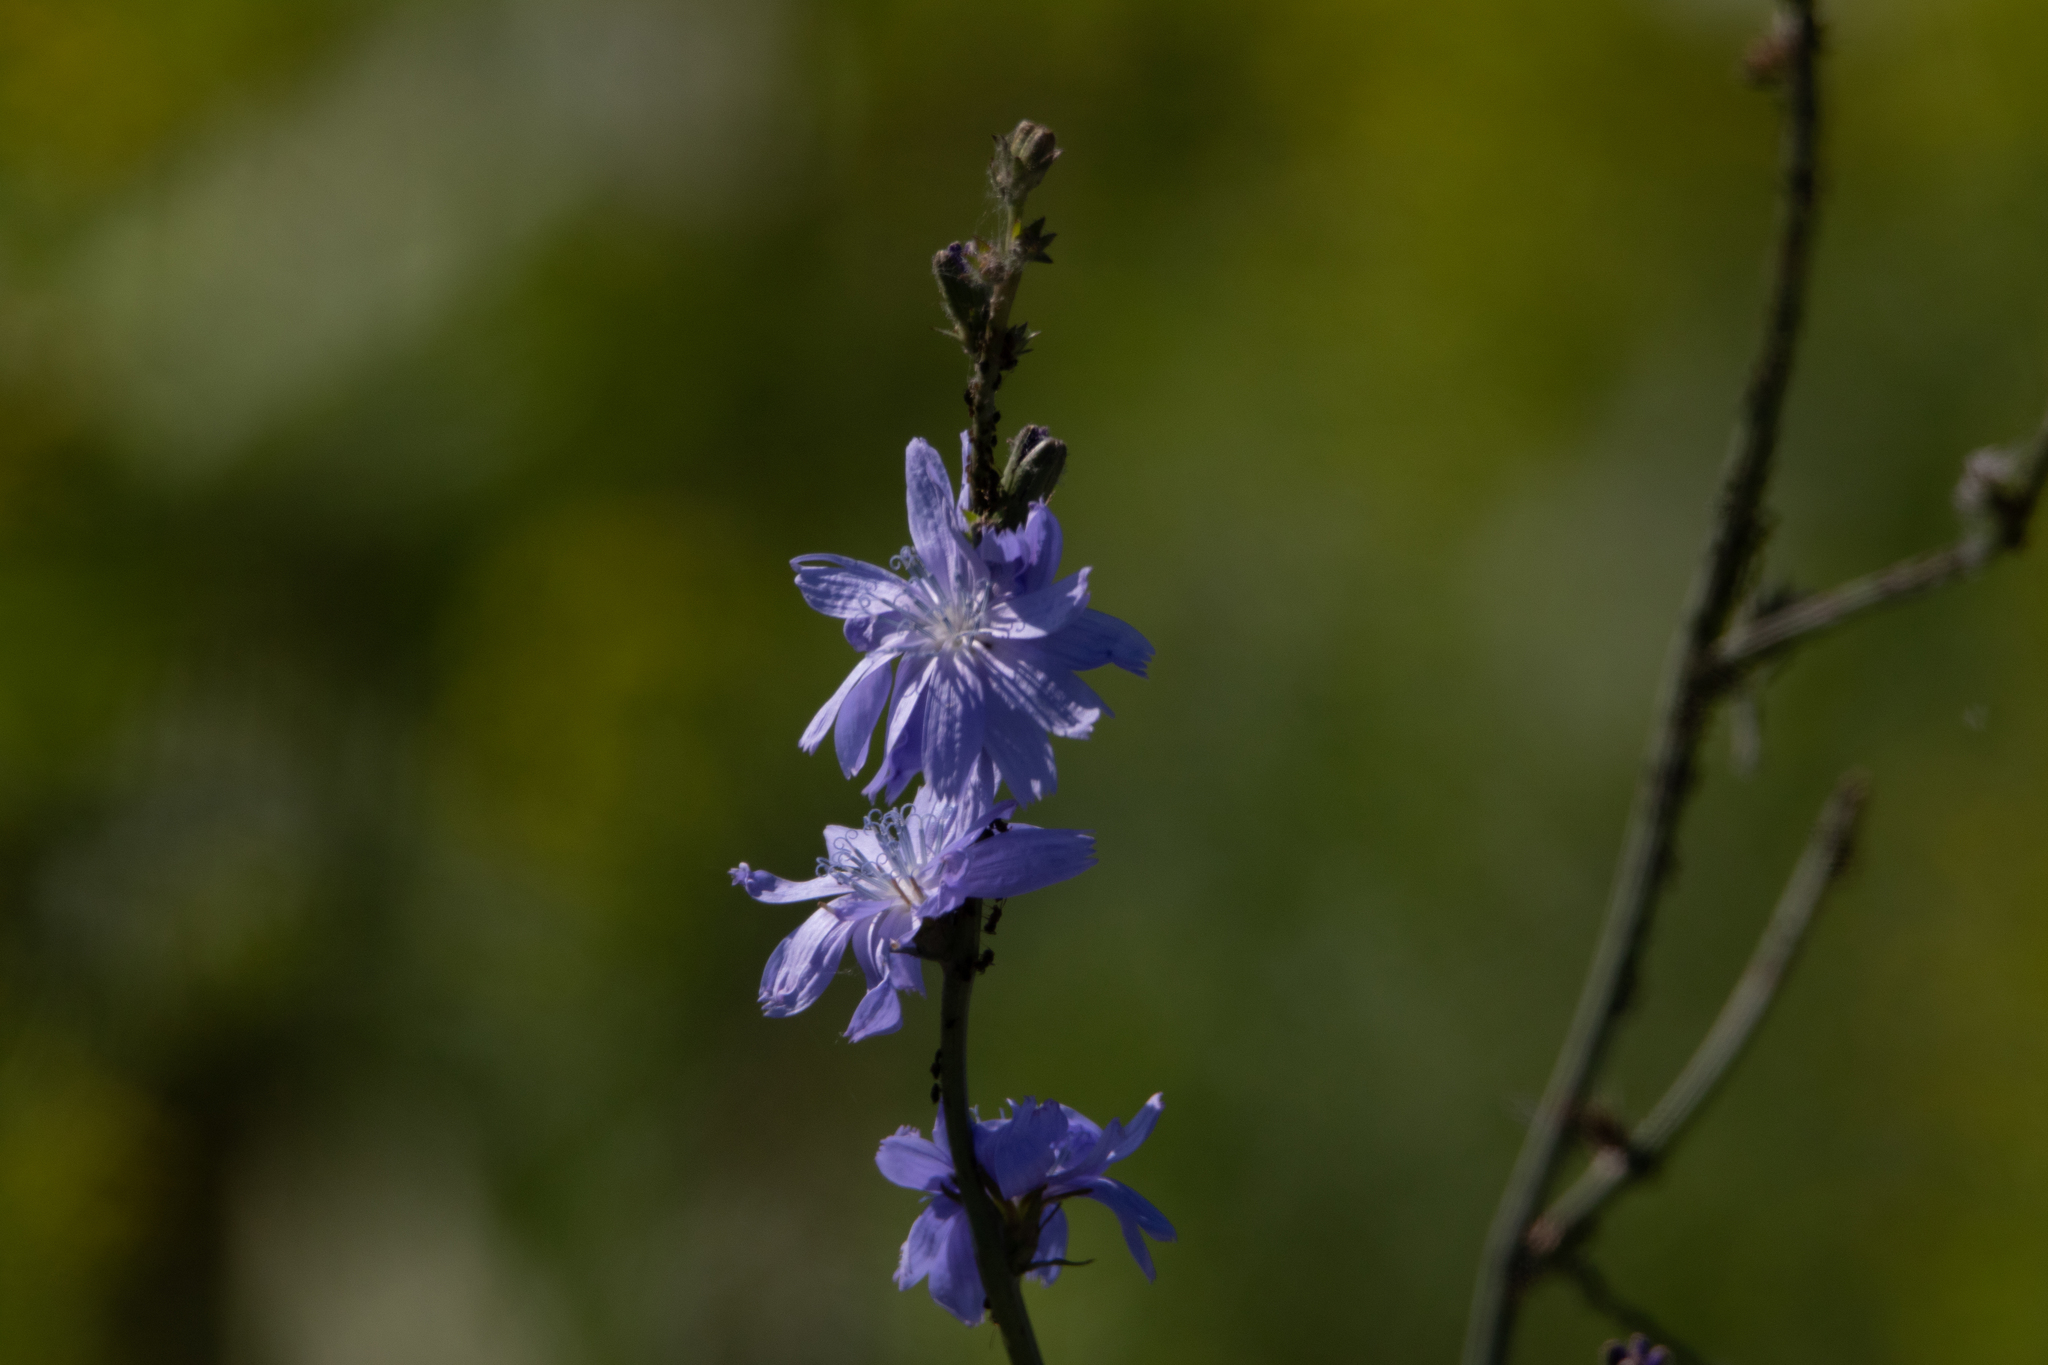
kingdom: Plantae
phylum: Tracheophyta
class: Magnoliopsida
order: Asterales
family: Asteraceae
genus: Cichorium
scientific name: Cichorium intybus
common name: Chicory
